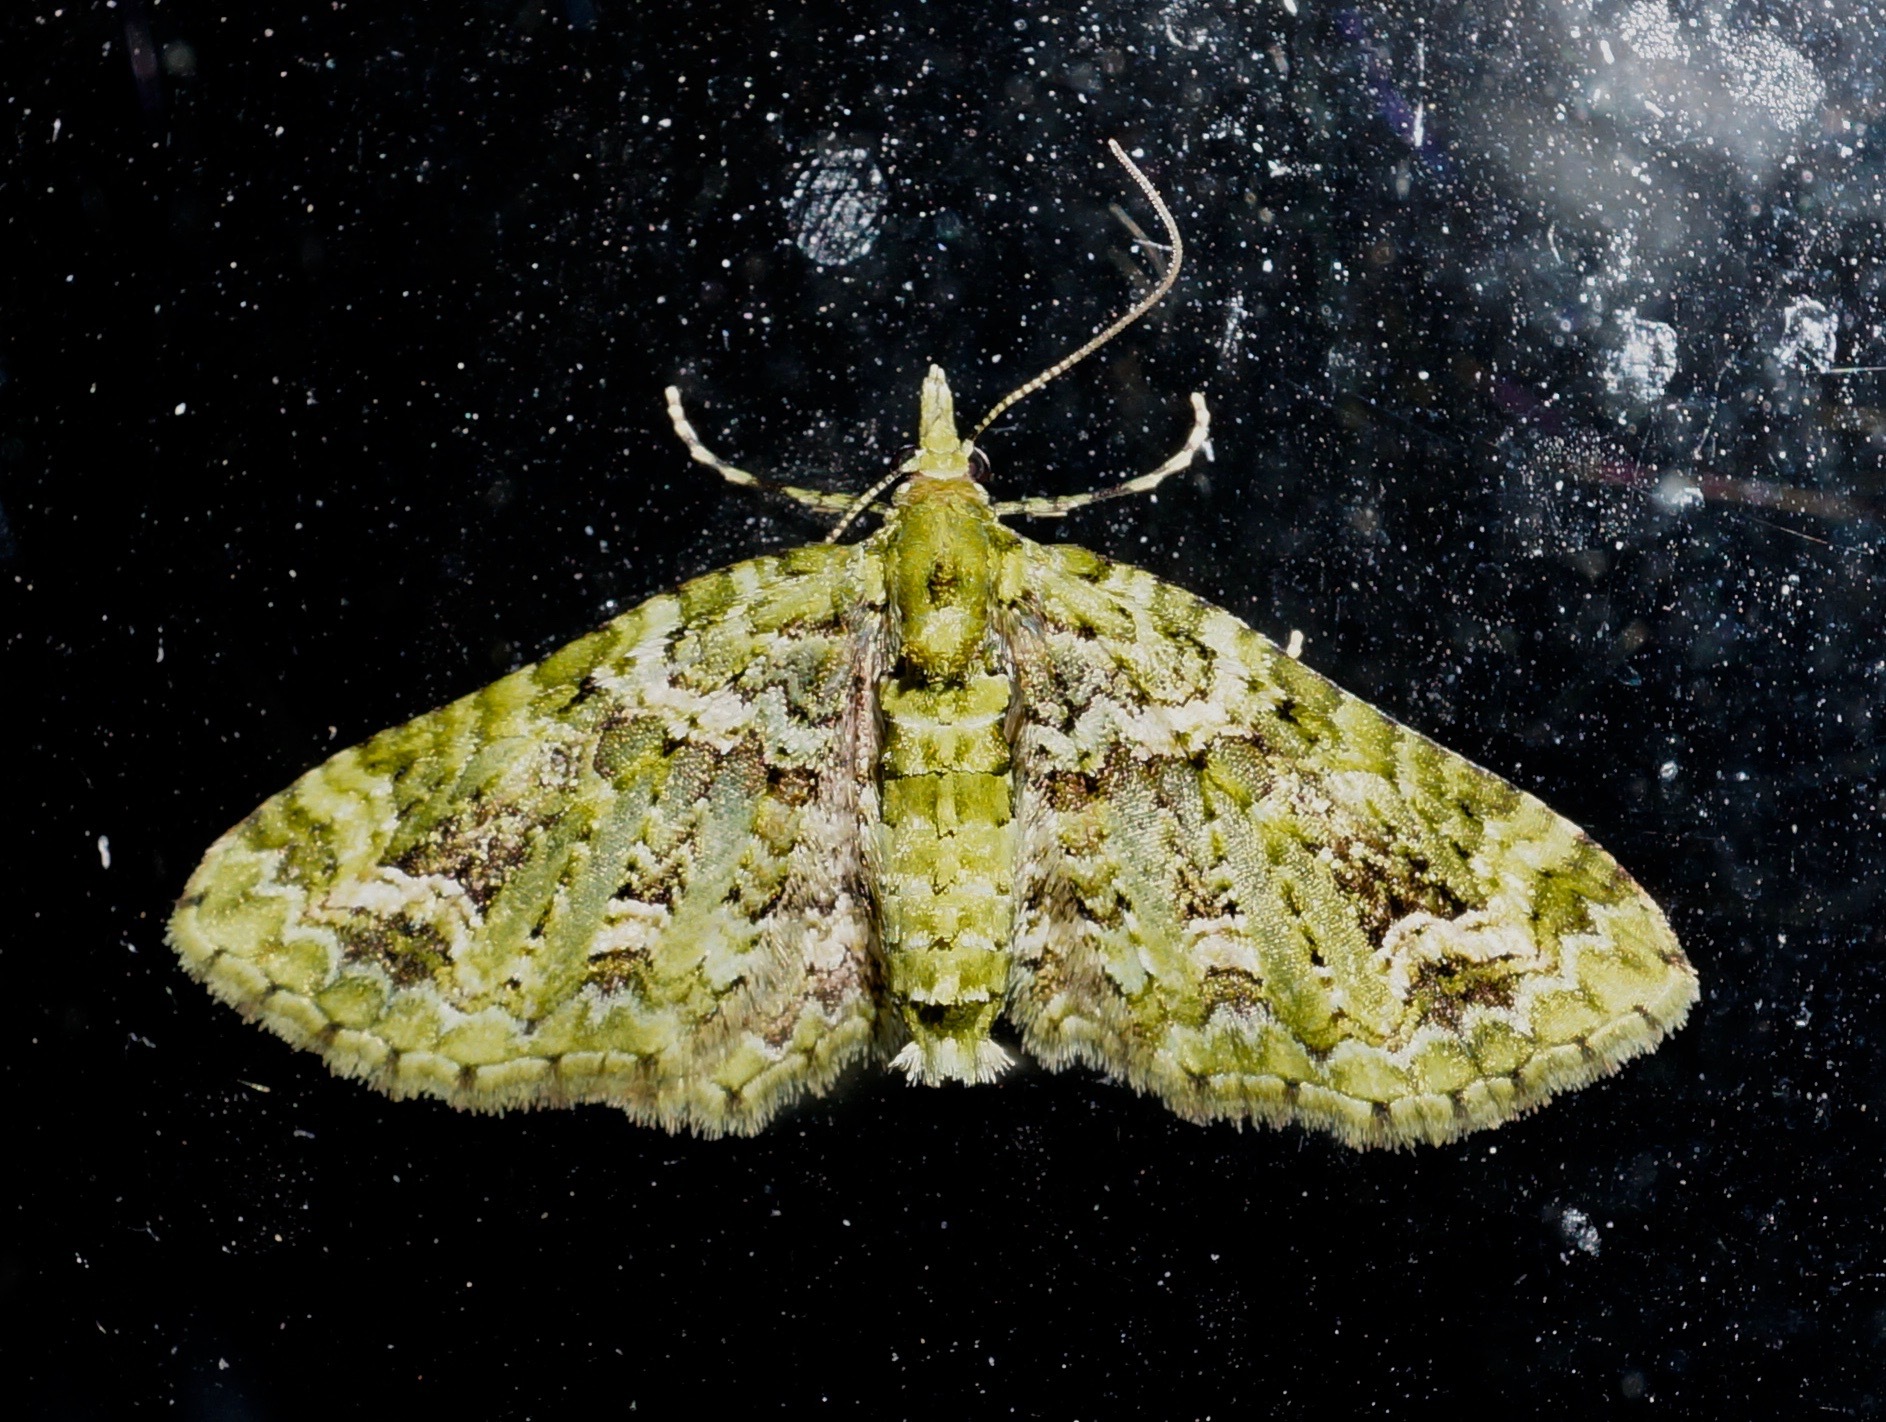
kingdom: Animalia
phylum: Arthropoda
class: Insecta
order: Lepidoptera
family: Geometridae
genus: Pasiphila
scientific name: Pasiphila muscosata
